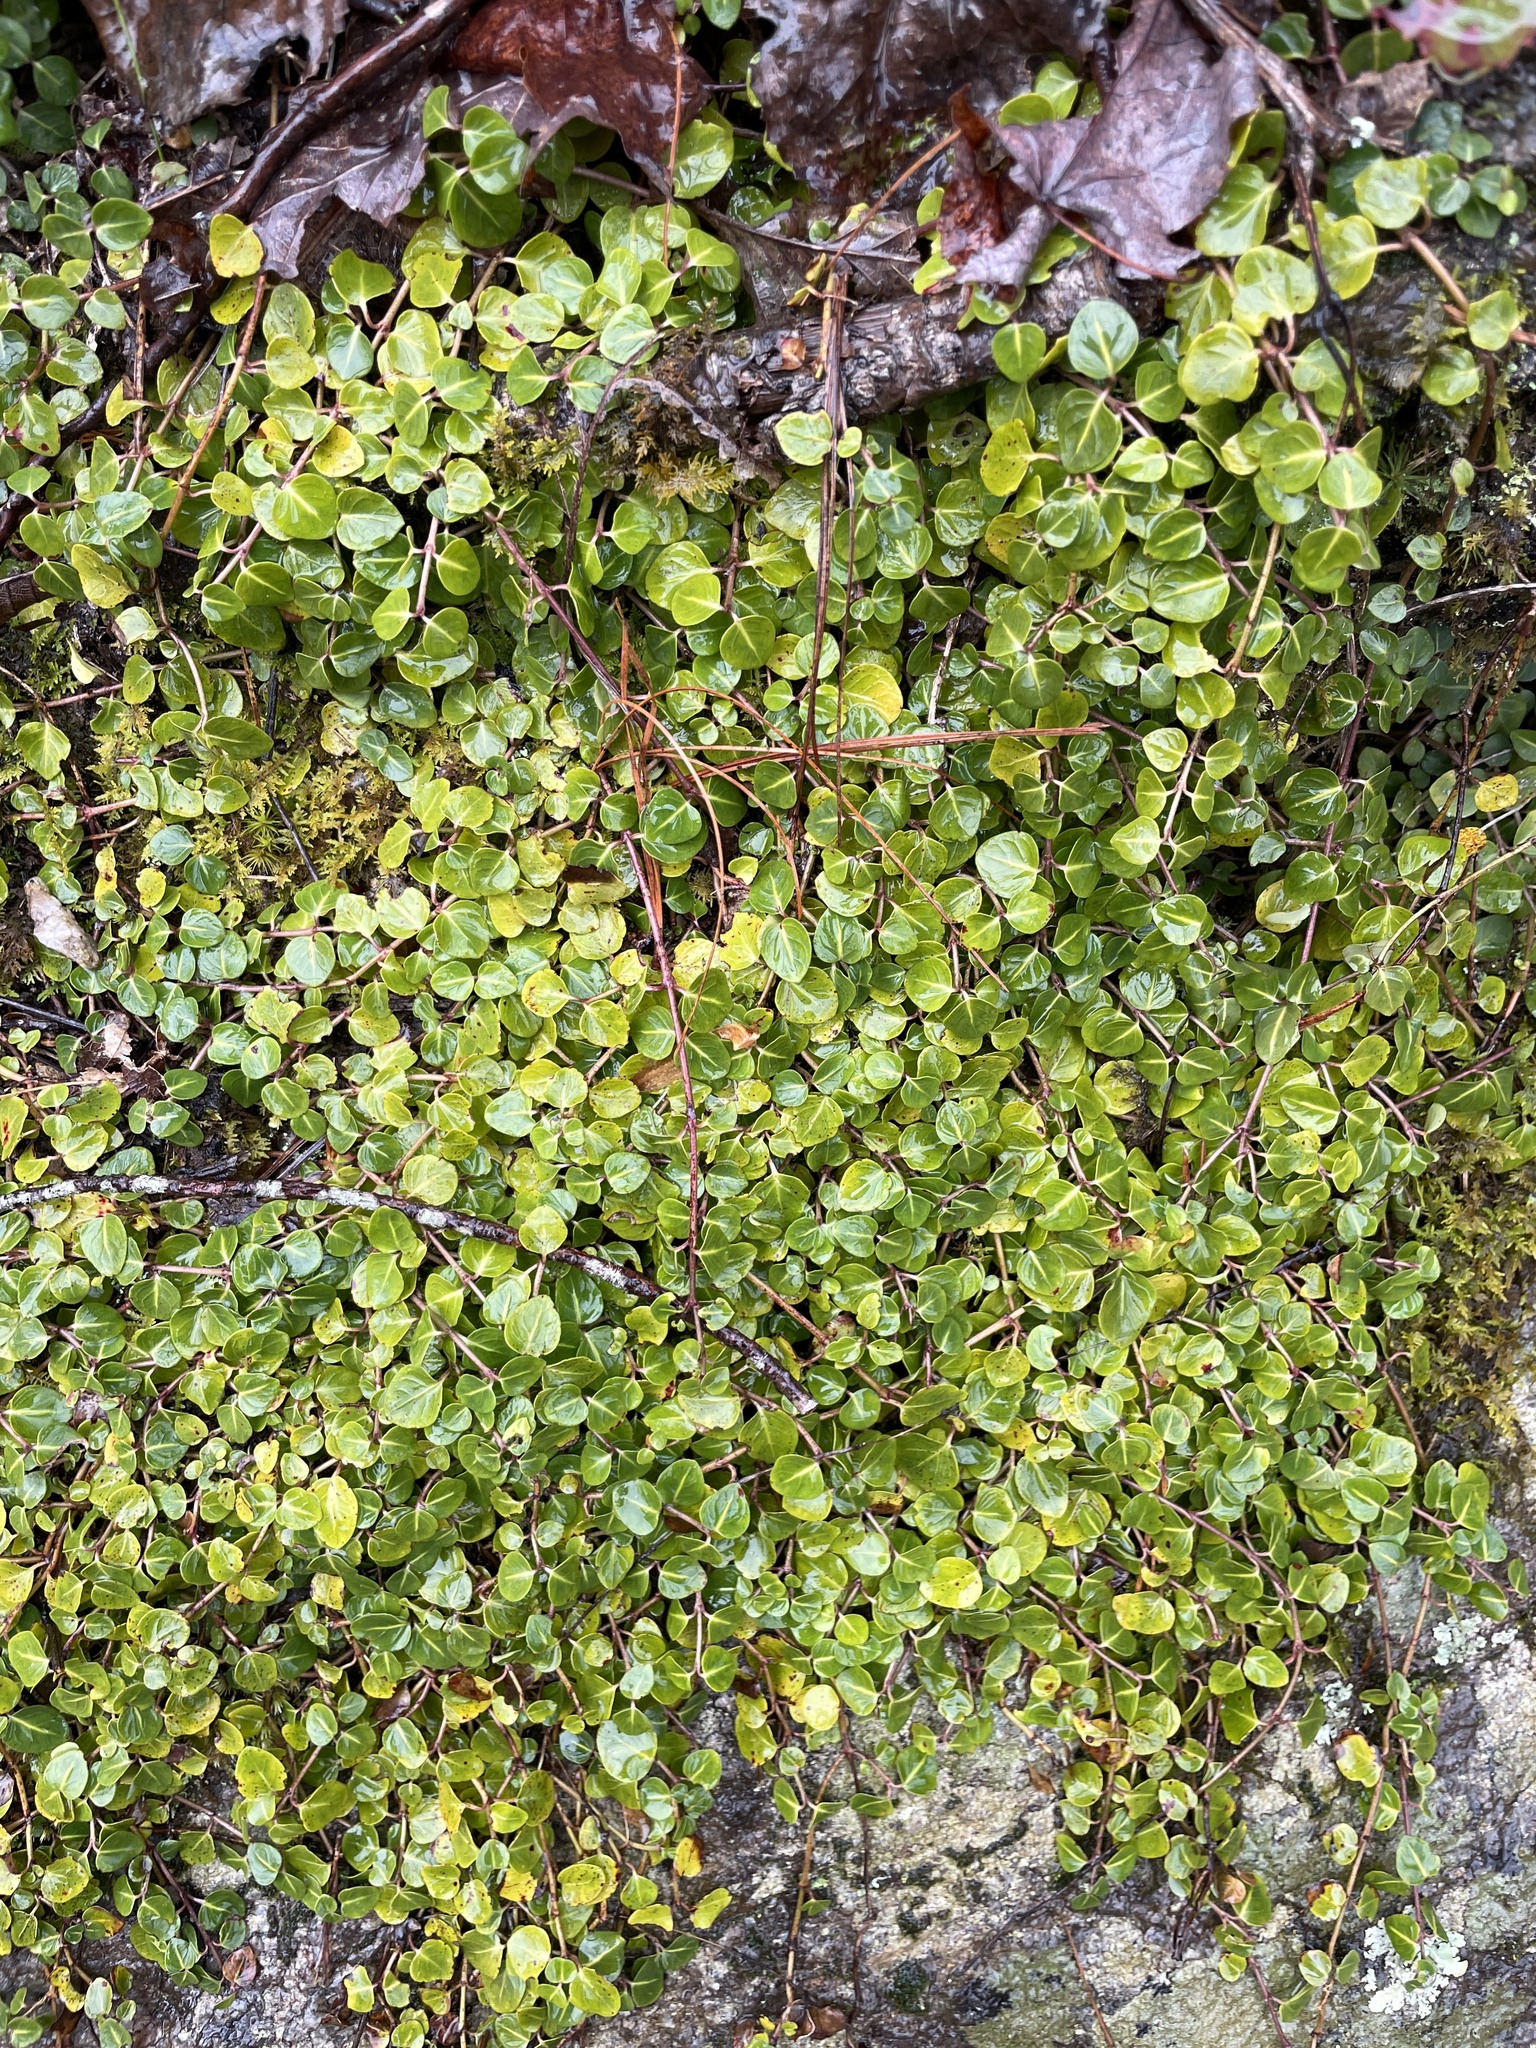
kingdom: Plantae
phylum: Tracheophyta
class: Magnoliopsida
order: Gentianales
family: Rubiaceae
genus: Mitchella
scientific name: Mitchella repens
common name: Partridge-berry
